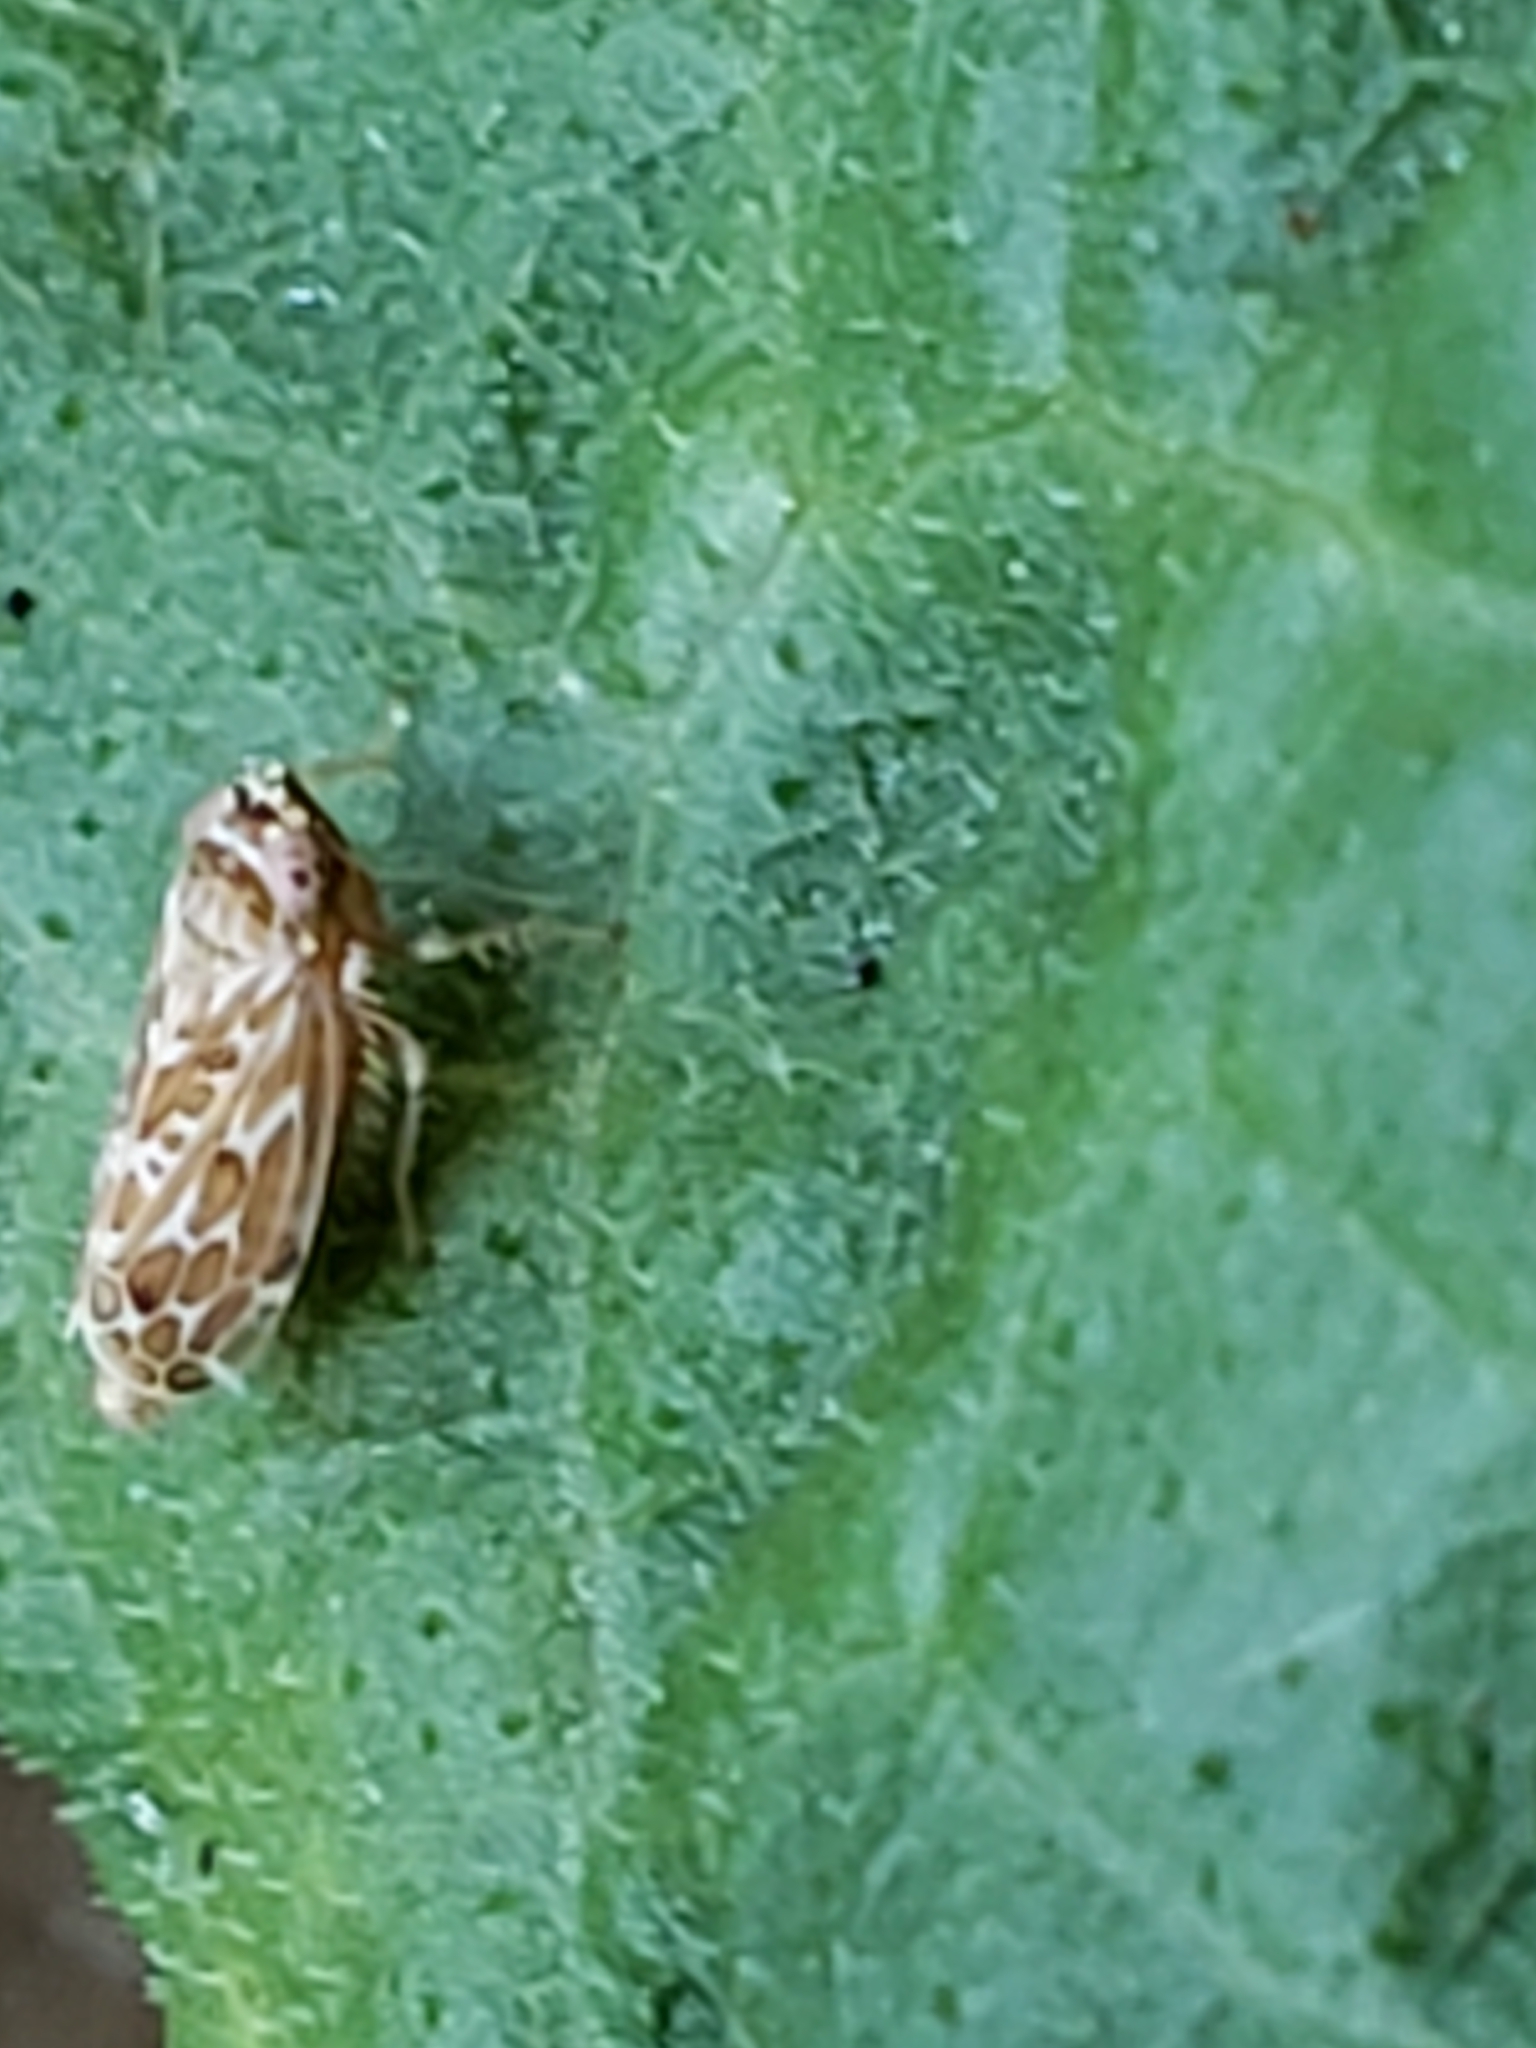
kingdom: Animalia
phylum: Arthropoda
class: Insecta
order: Hemiptera
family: Cicadellidae
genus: Polyamia
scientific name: Polyamia interrupta
